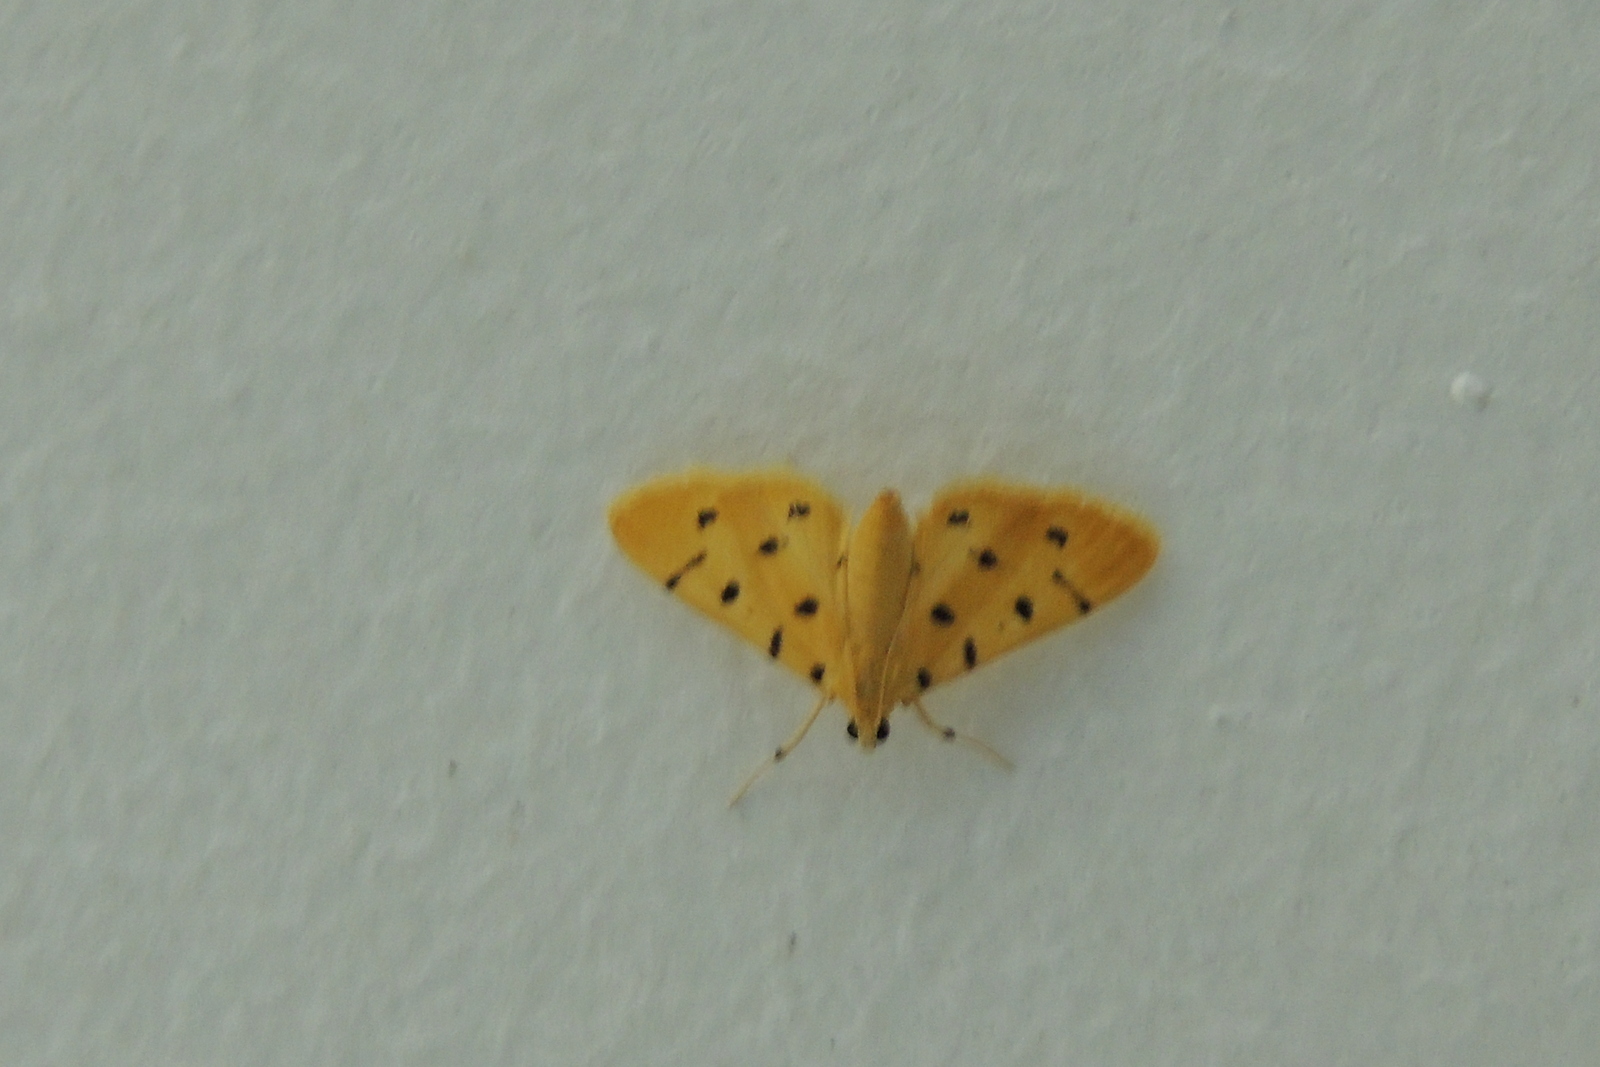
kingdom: Animalia
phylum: Arthropoda
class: Insecta
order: Lepidoptera
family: Crambidae
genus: Xanthomelaena
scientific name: Xanthomelaena schematias
